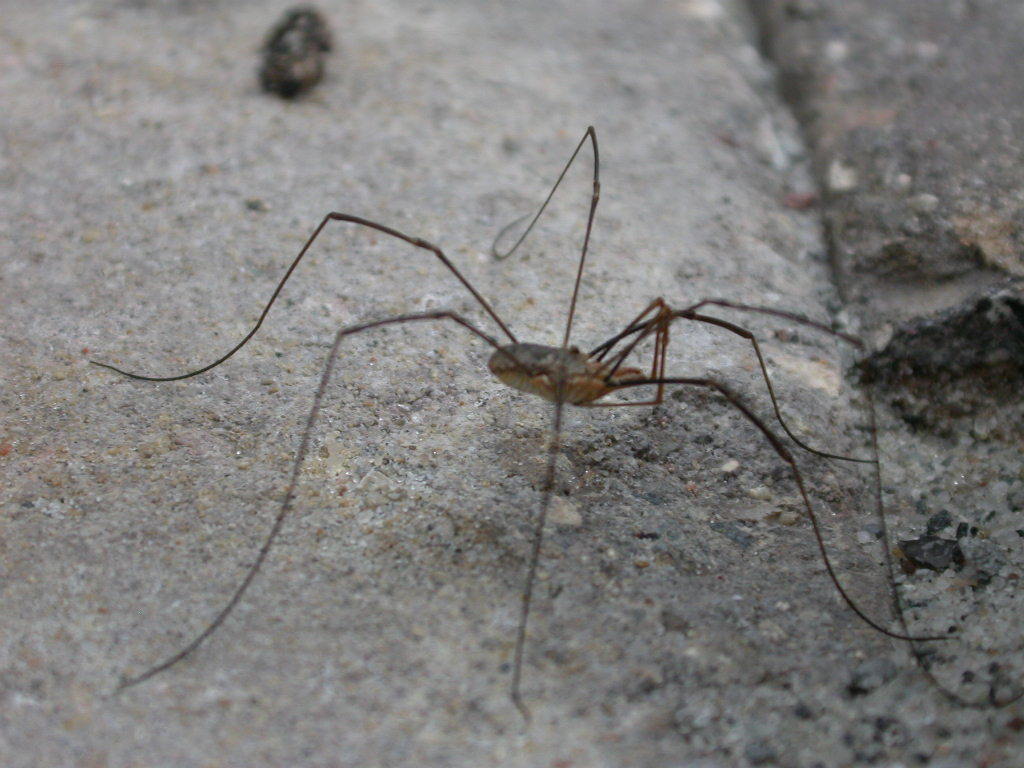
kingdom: Animalia
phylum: Arthropoda
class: Arachnida
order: Opiliones
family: Phalangiidae
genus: Phalangium
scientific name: Phalangium opilio
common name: Daddy longleg
